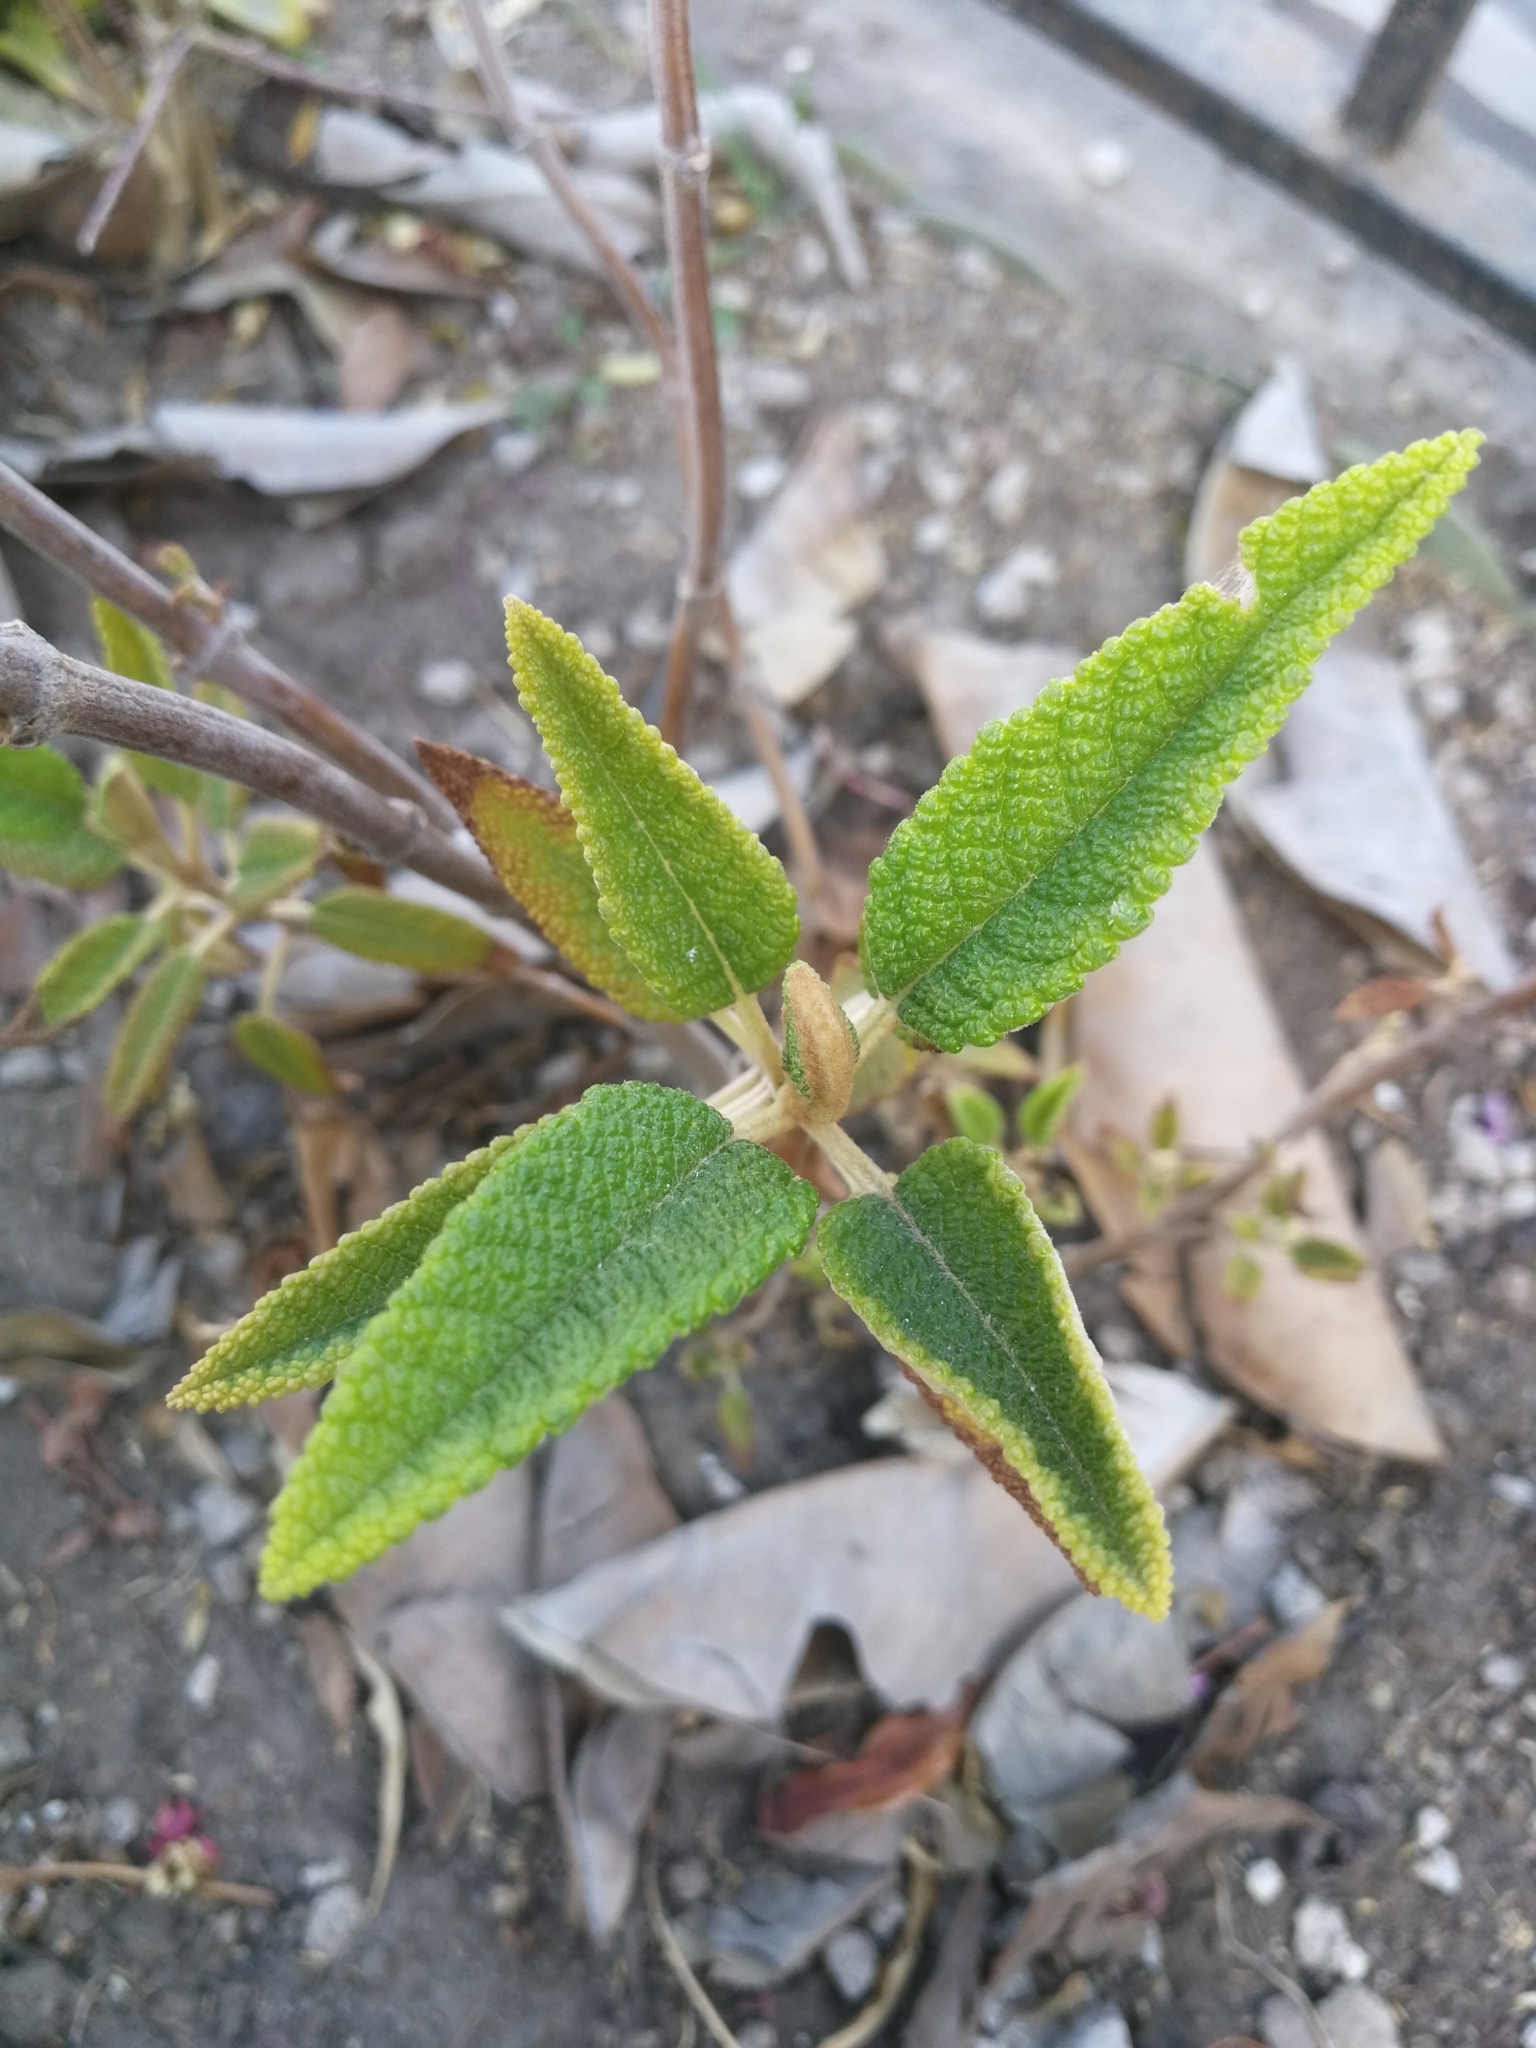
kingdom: Plantae
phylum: Tracheophyta
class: Magnoliopsida
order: Lamiales
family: Lamiaceae
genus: Salvia
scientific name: Salvia corrugata
